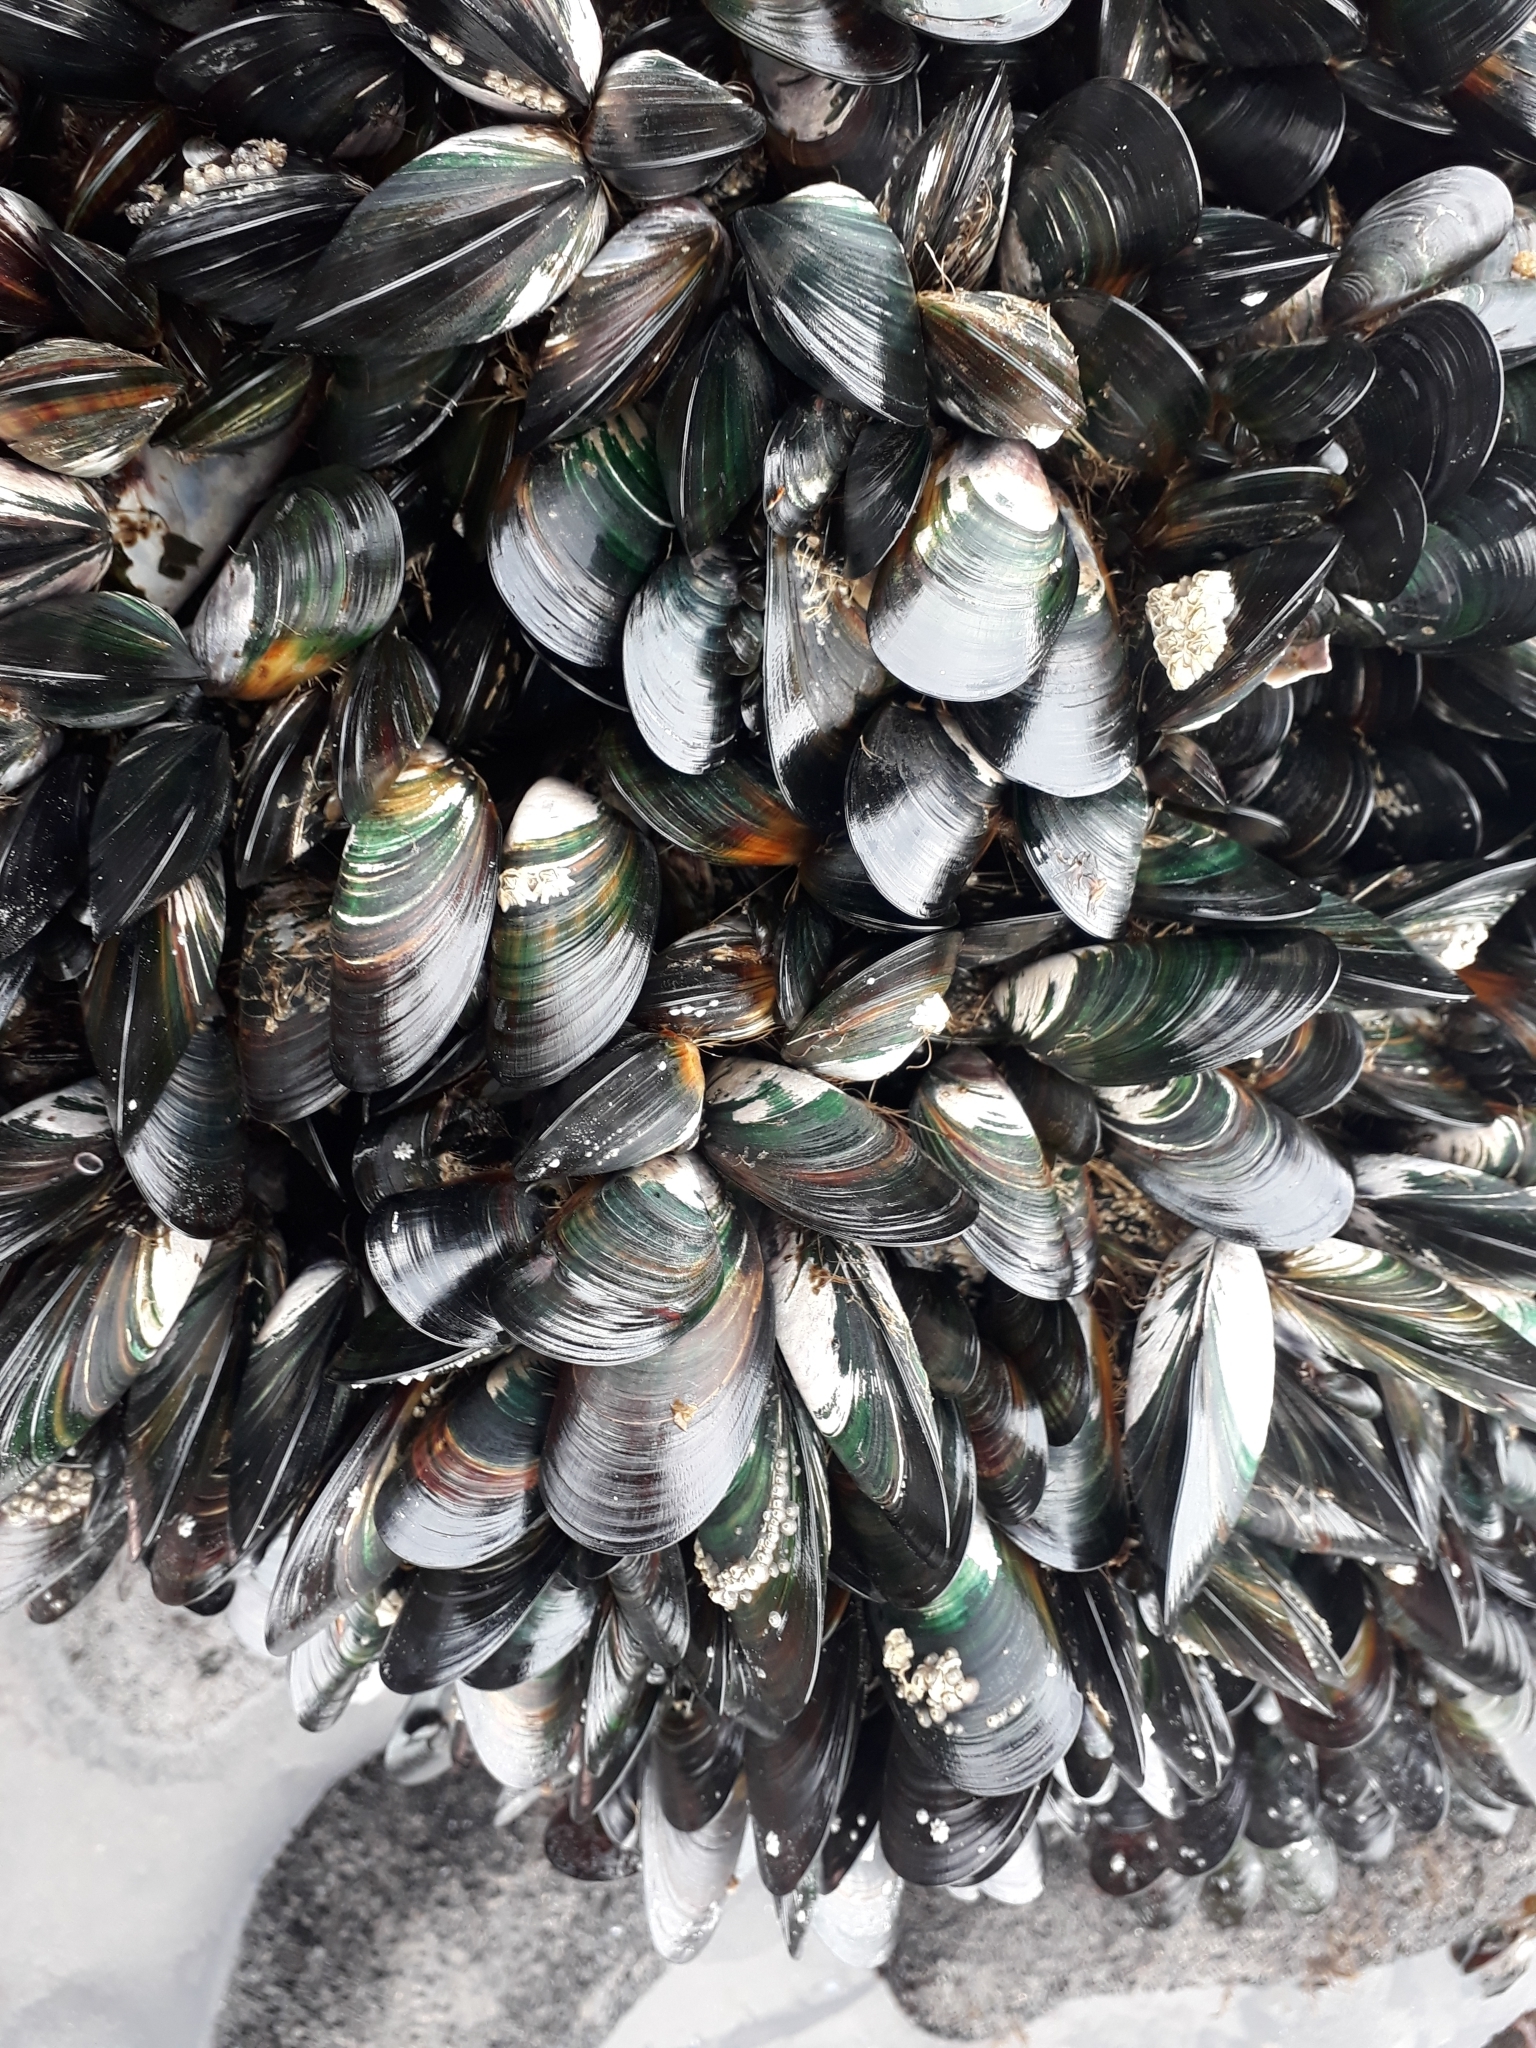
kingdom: Animalia
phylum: Mollusca
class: Bivalvia
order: Mytilida
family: Mytilidae
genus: Perna
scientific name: Perna canaliculus
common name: New zealand greenshelltm
